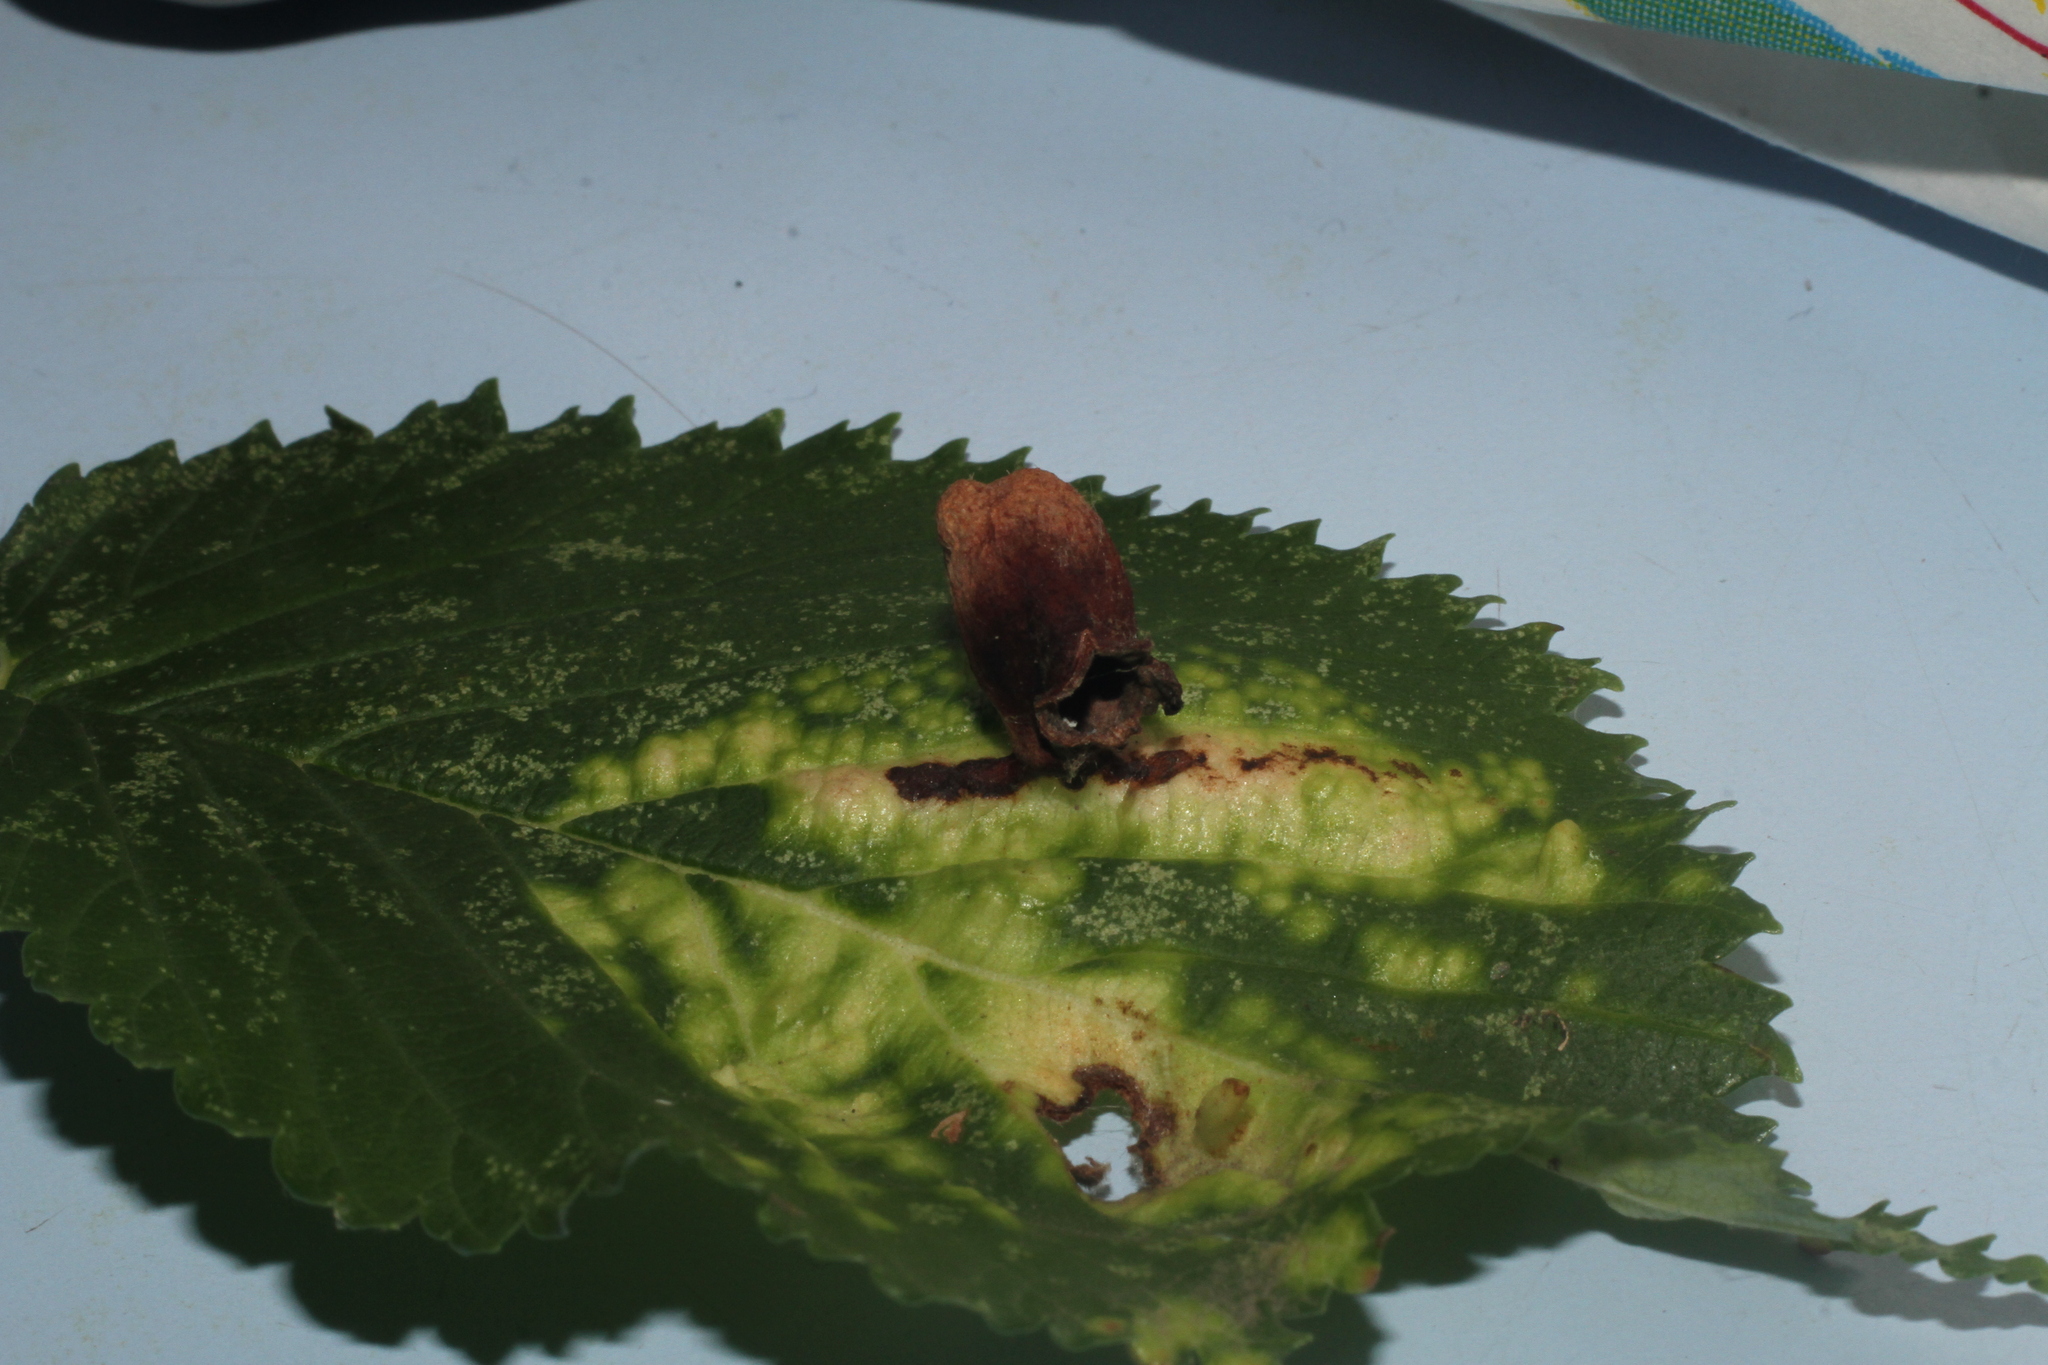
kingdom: Animalia
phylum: Arthropoda
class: Insecta
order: Hemiptera
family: Aphididae
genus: Tetraneura
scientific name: Tetraneura ulmi
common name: Aphid
